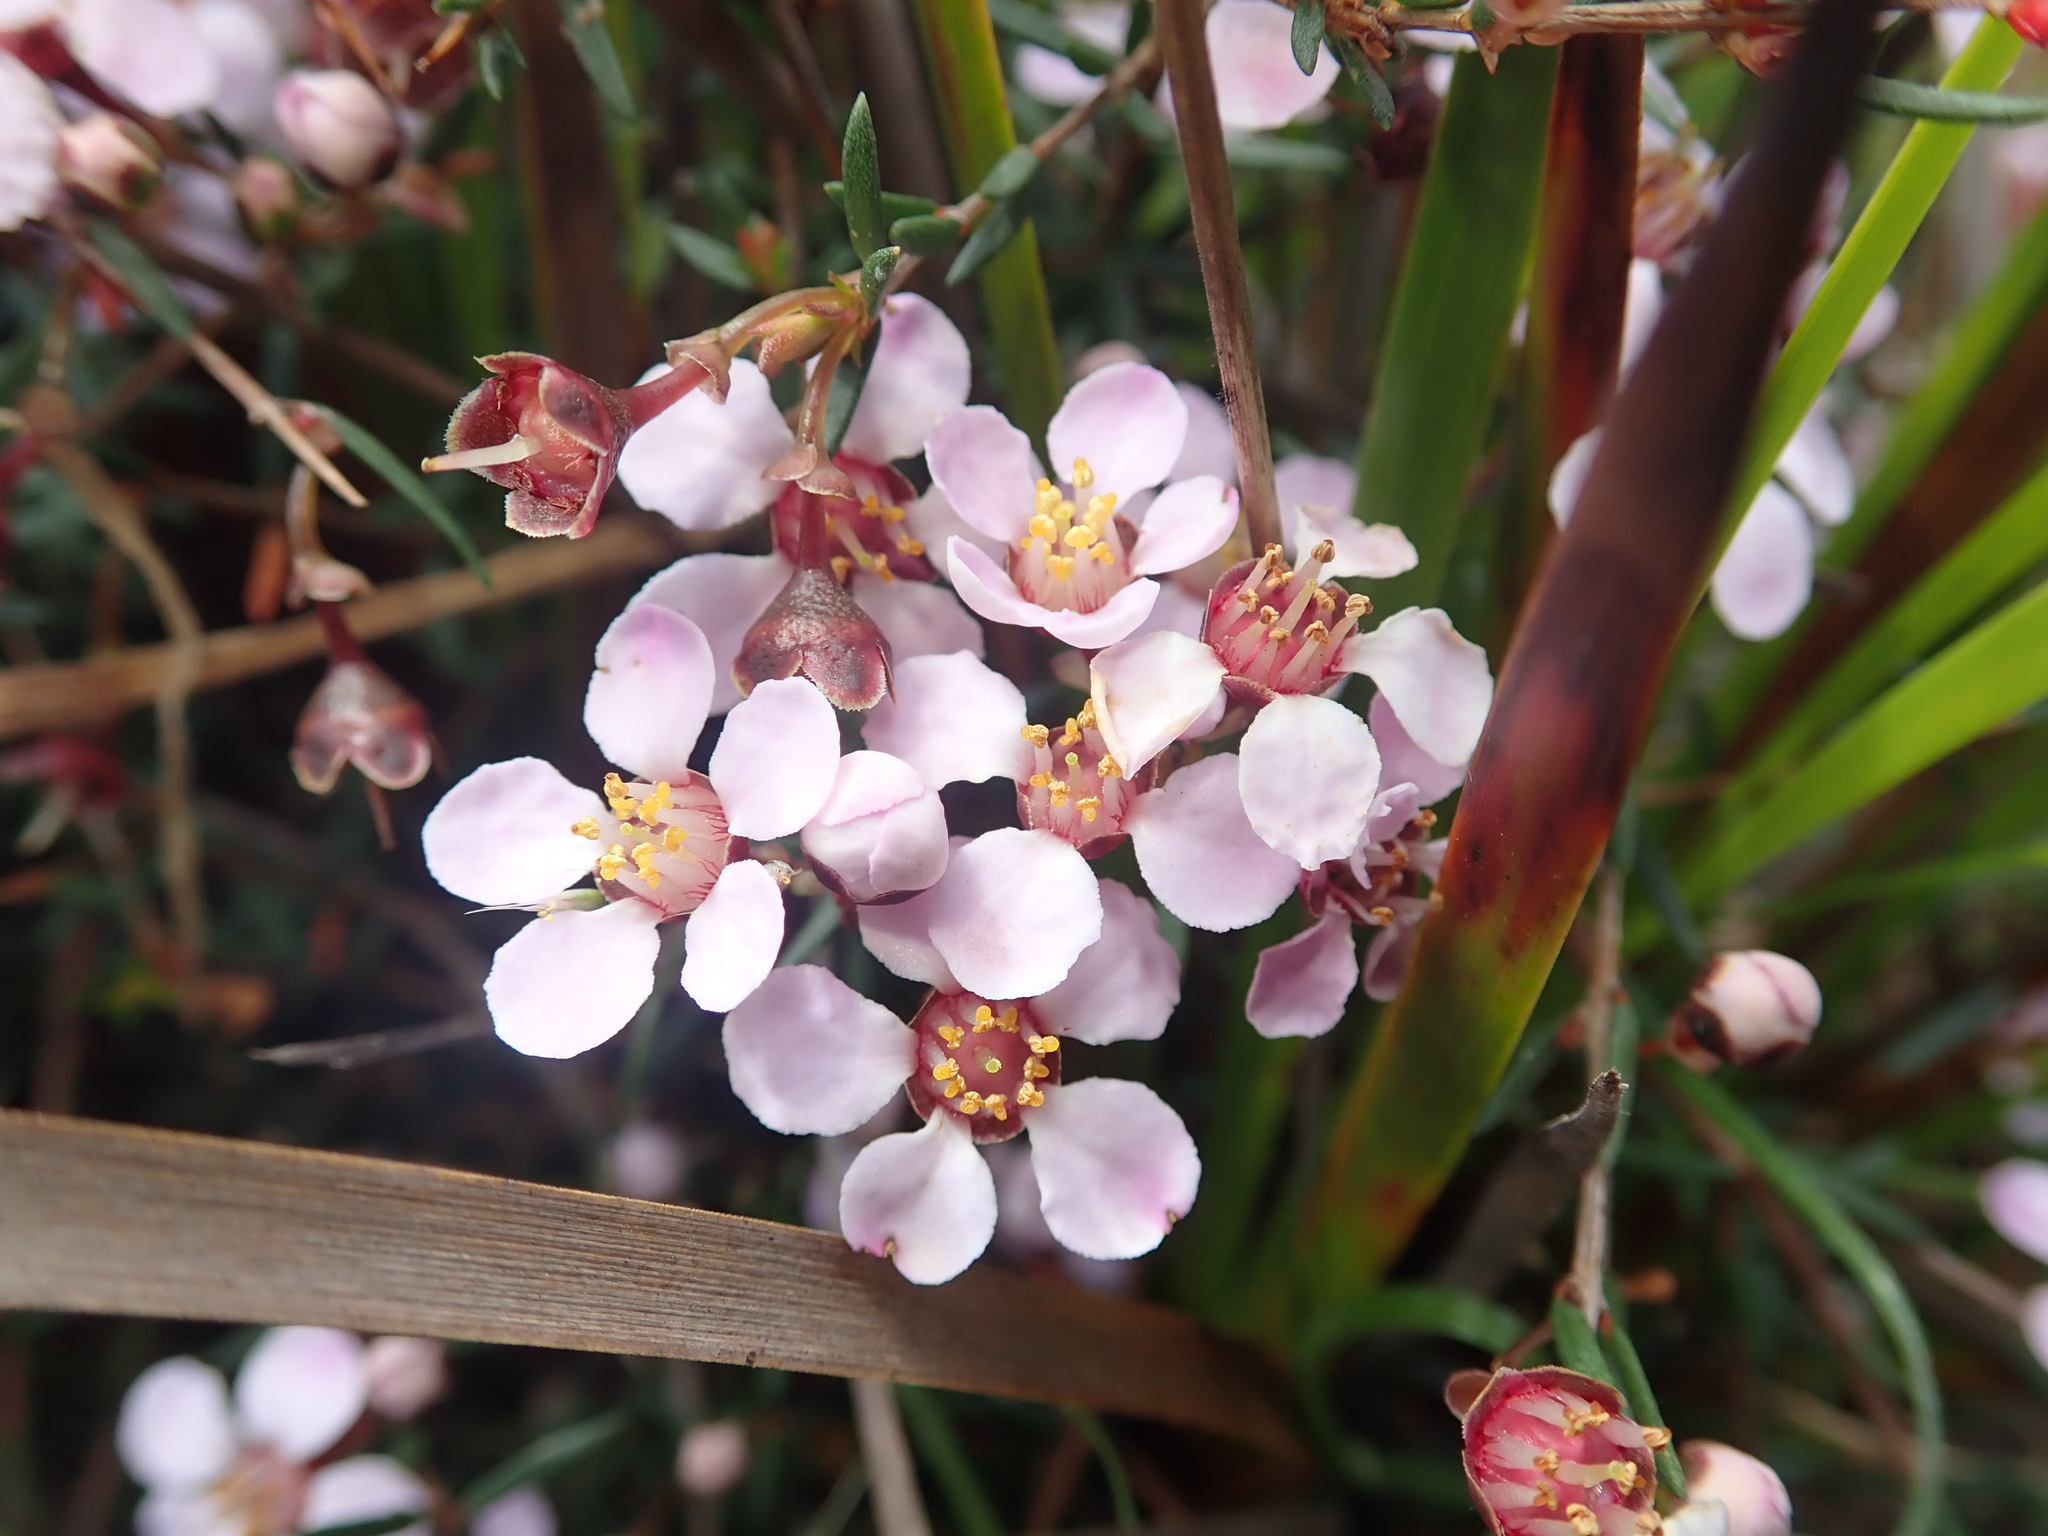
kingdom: Plantae
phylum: Tracheophyta
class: Magnoliopsida
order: Myrtales
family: Myrtaceae
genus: Euryomyrtus
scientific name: Euryomyrtus ramosissima
